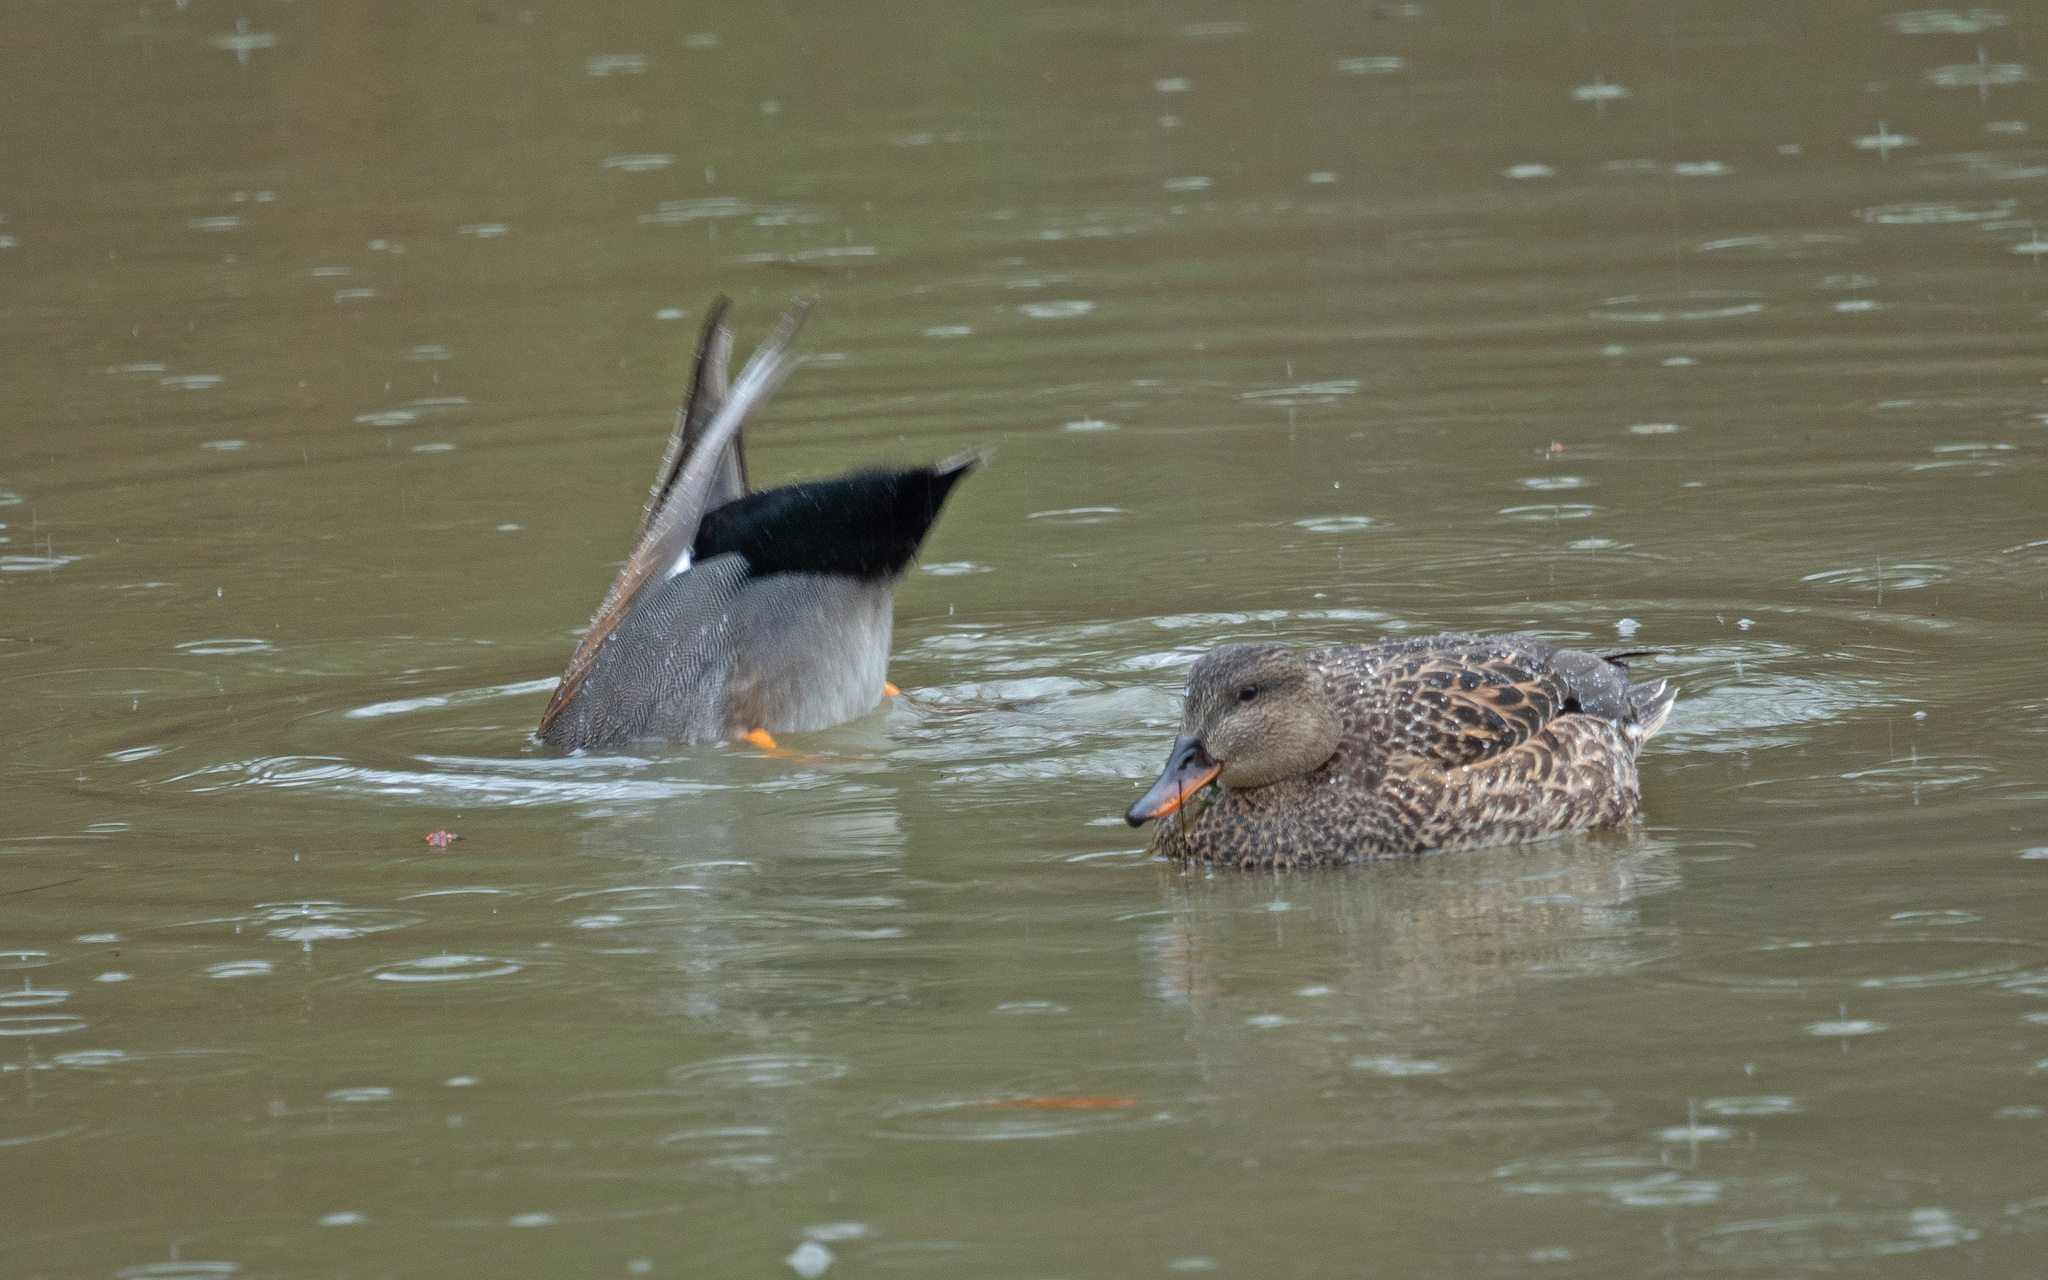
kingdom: Animalia
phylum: Chordata
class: Aves
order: Anseriformes
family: Anatidae
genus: Mareca
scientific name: Mareca strepera
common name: Gadwall
